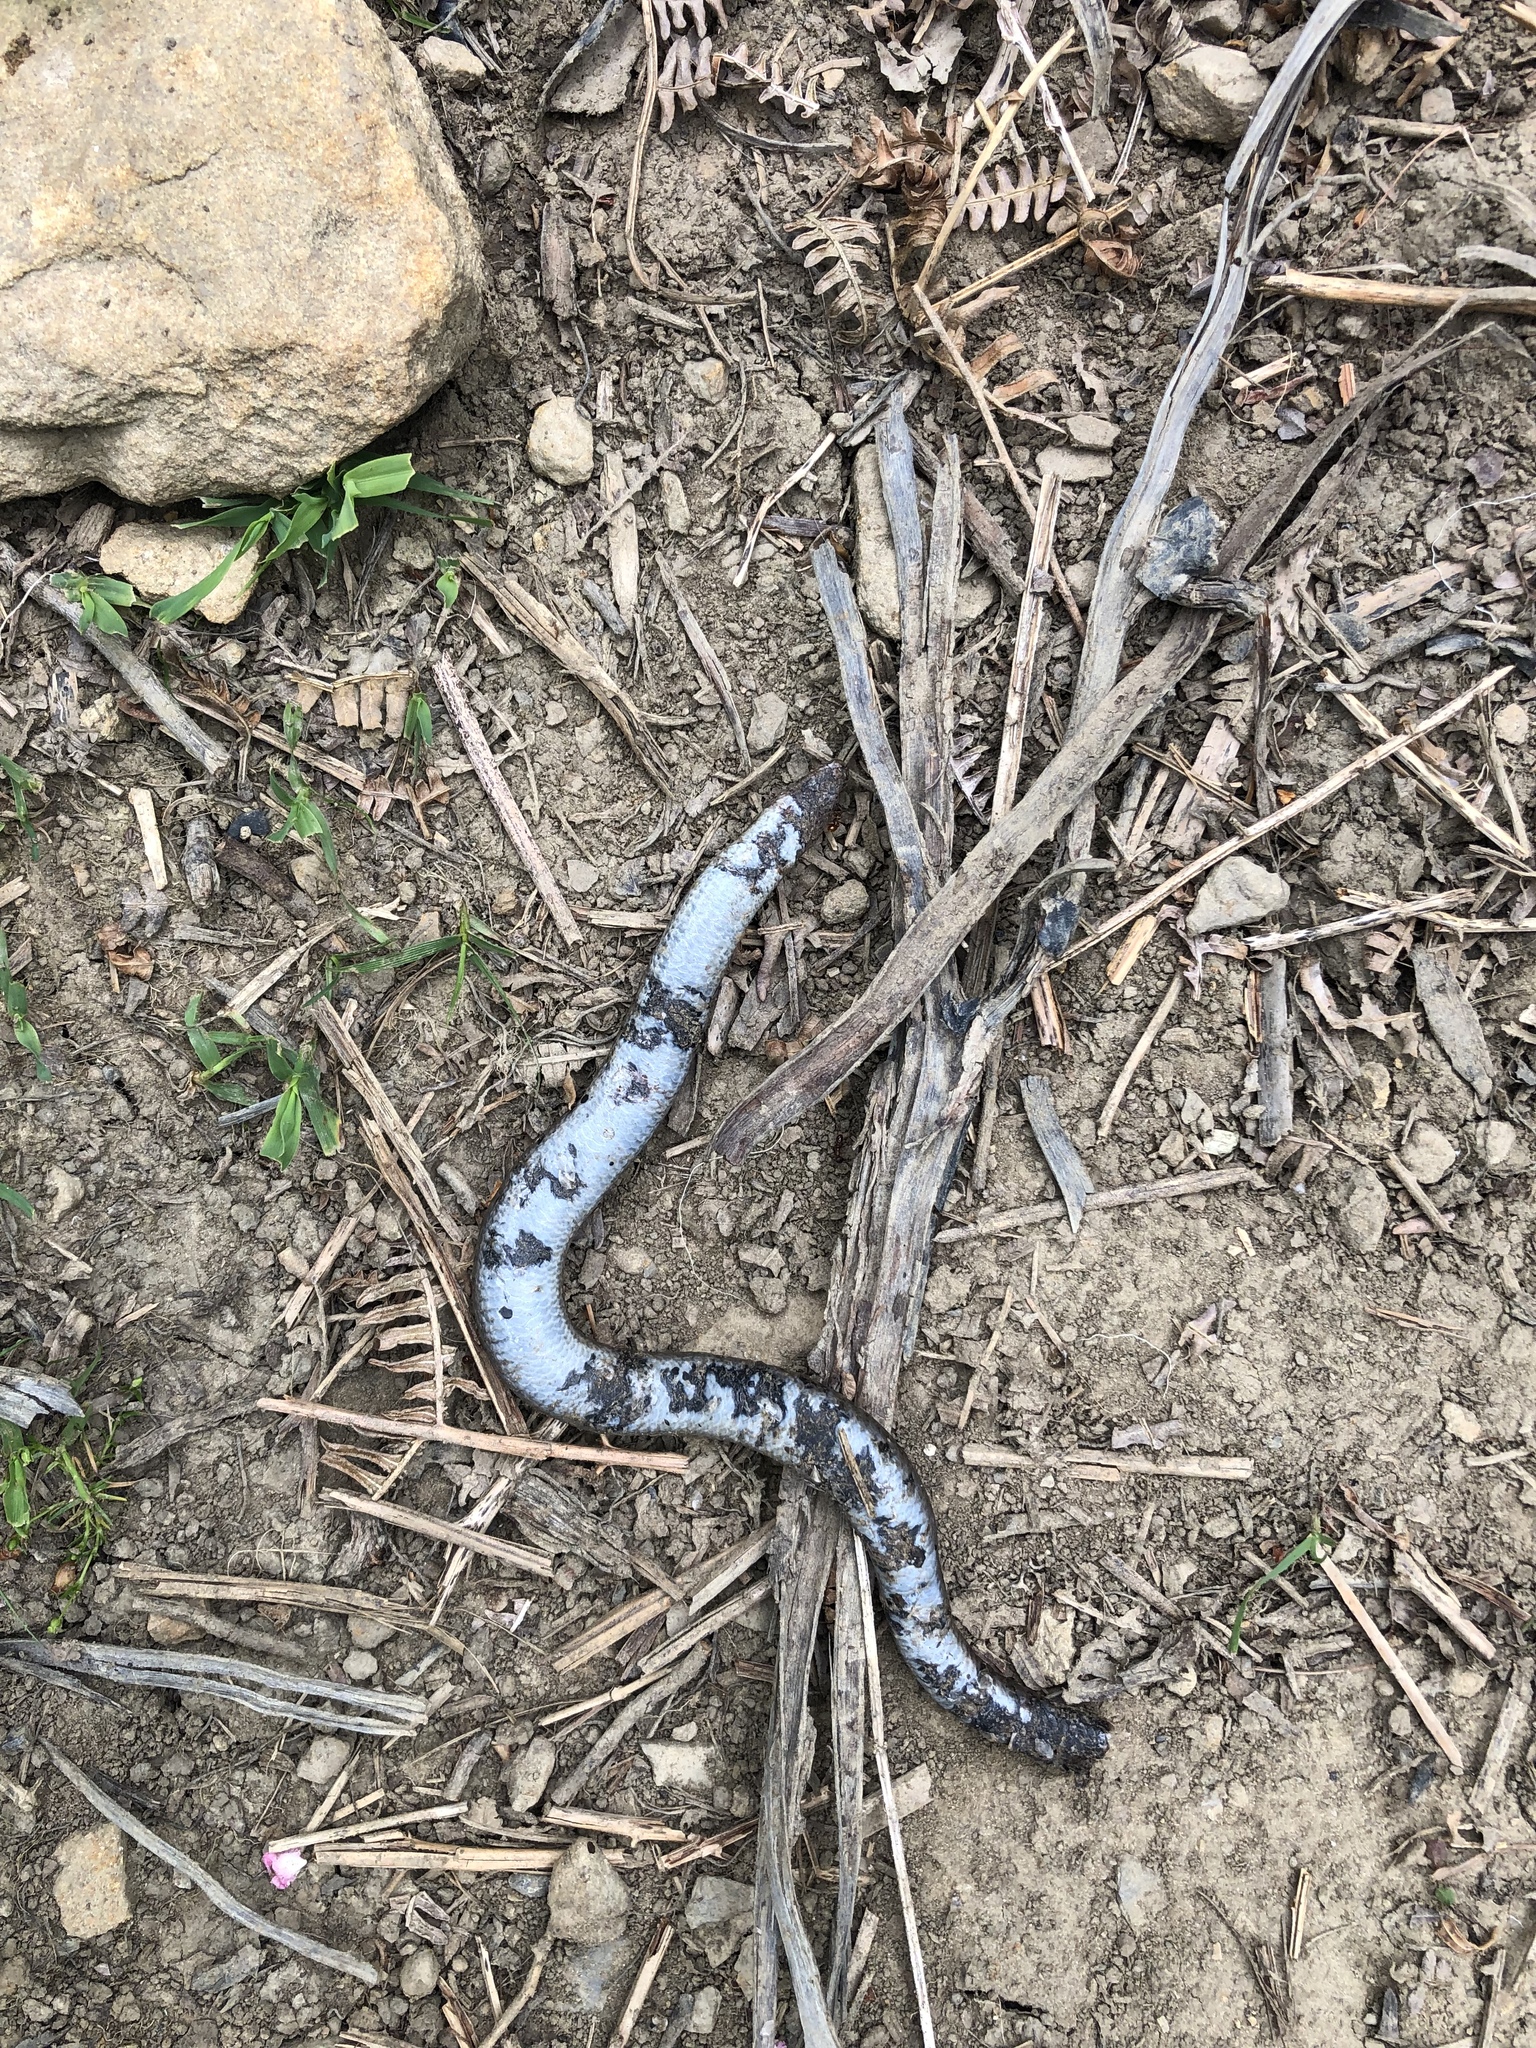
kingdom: Animalia
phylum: Chordata
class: Squamata
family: Anguidae
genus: Anguis
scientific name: Anguis fragilis
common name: Slow worm
